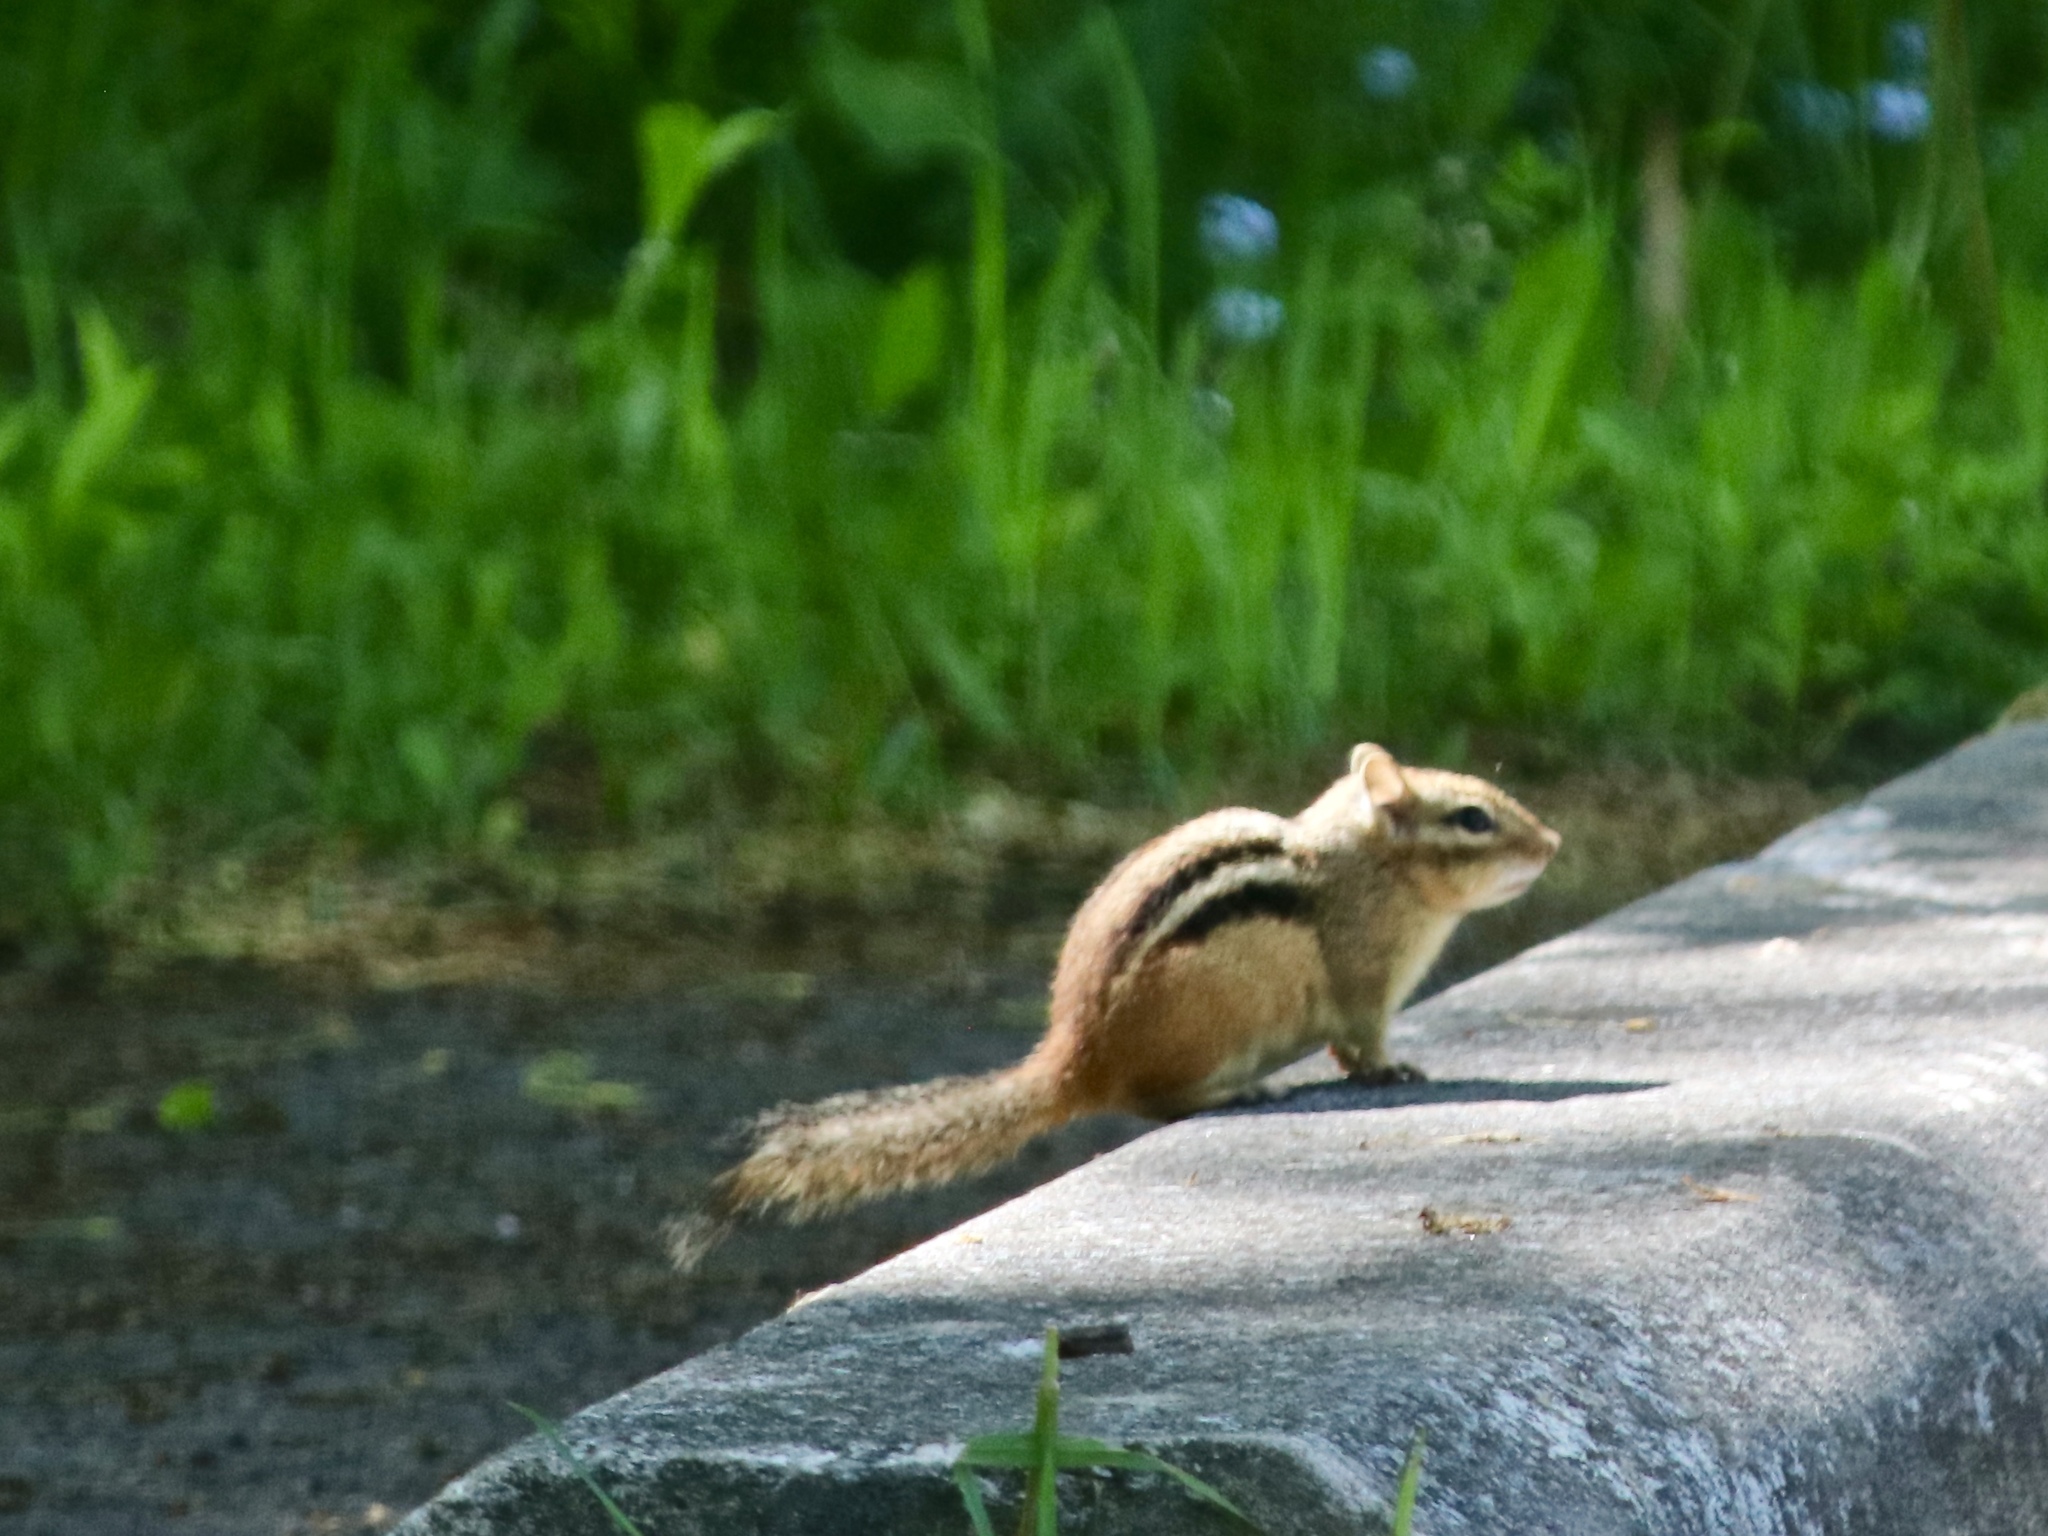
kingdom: Animalia
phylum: Chordata
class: Mammalia
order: Rodentia
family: Sciuridae
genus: Tamias
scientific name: Tamias striatus
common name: Eastern chipmunk
